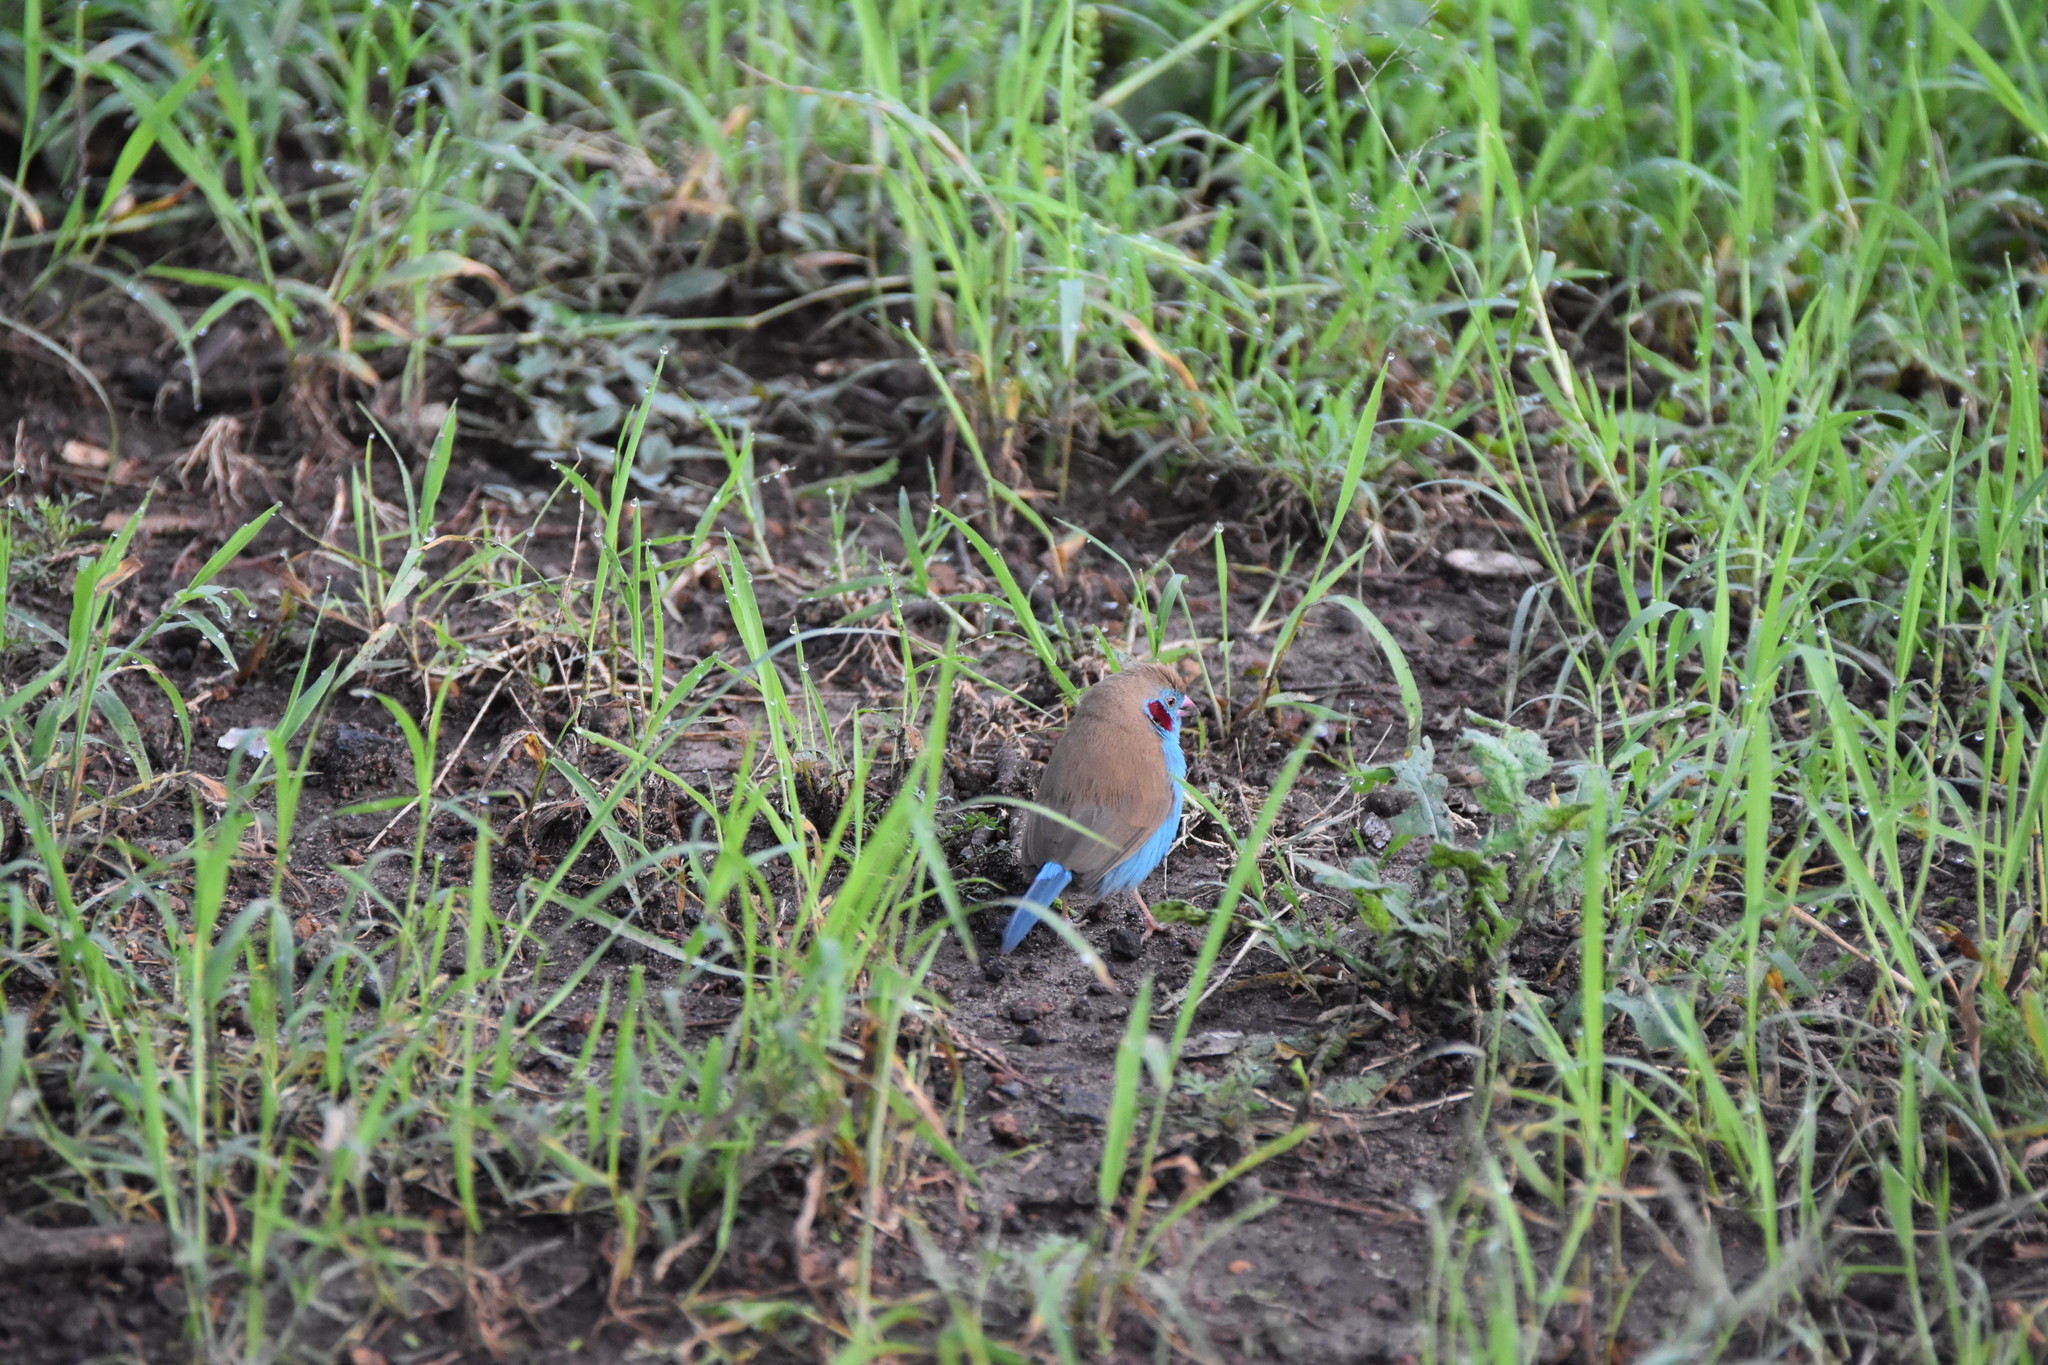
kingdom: Animalia
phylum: Chordata
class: Aves
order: Passeriformes
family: Estrildidae
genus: Uraeginthus
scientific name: Uraeginthus bengalus
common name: Red-cheeked cordon-bleu
